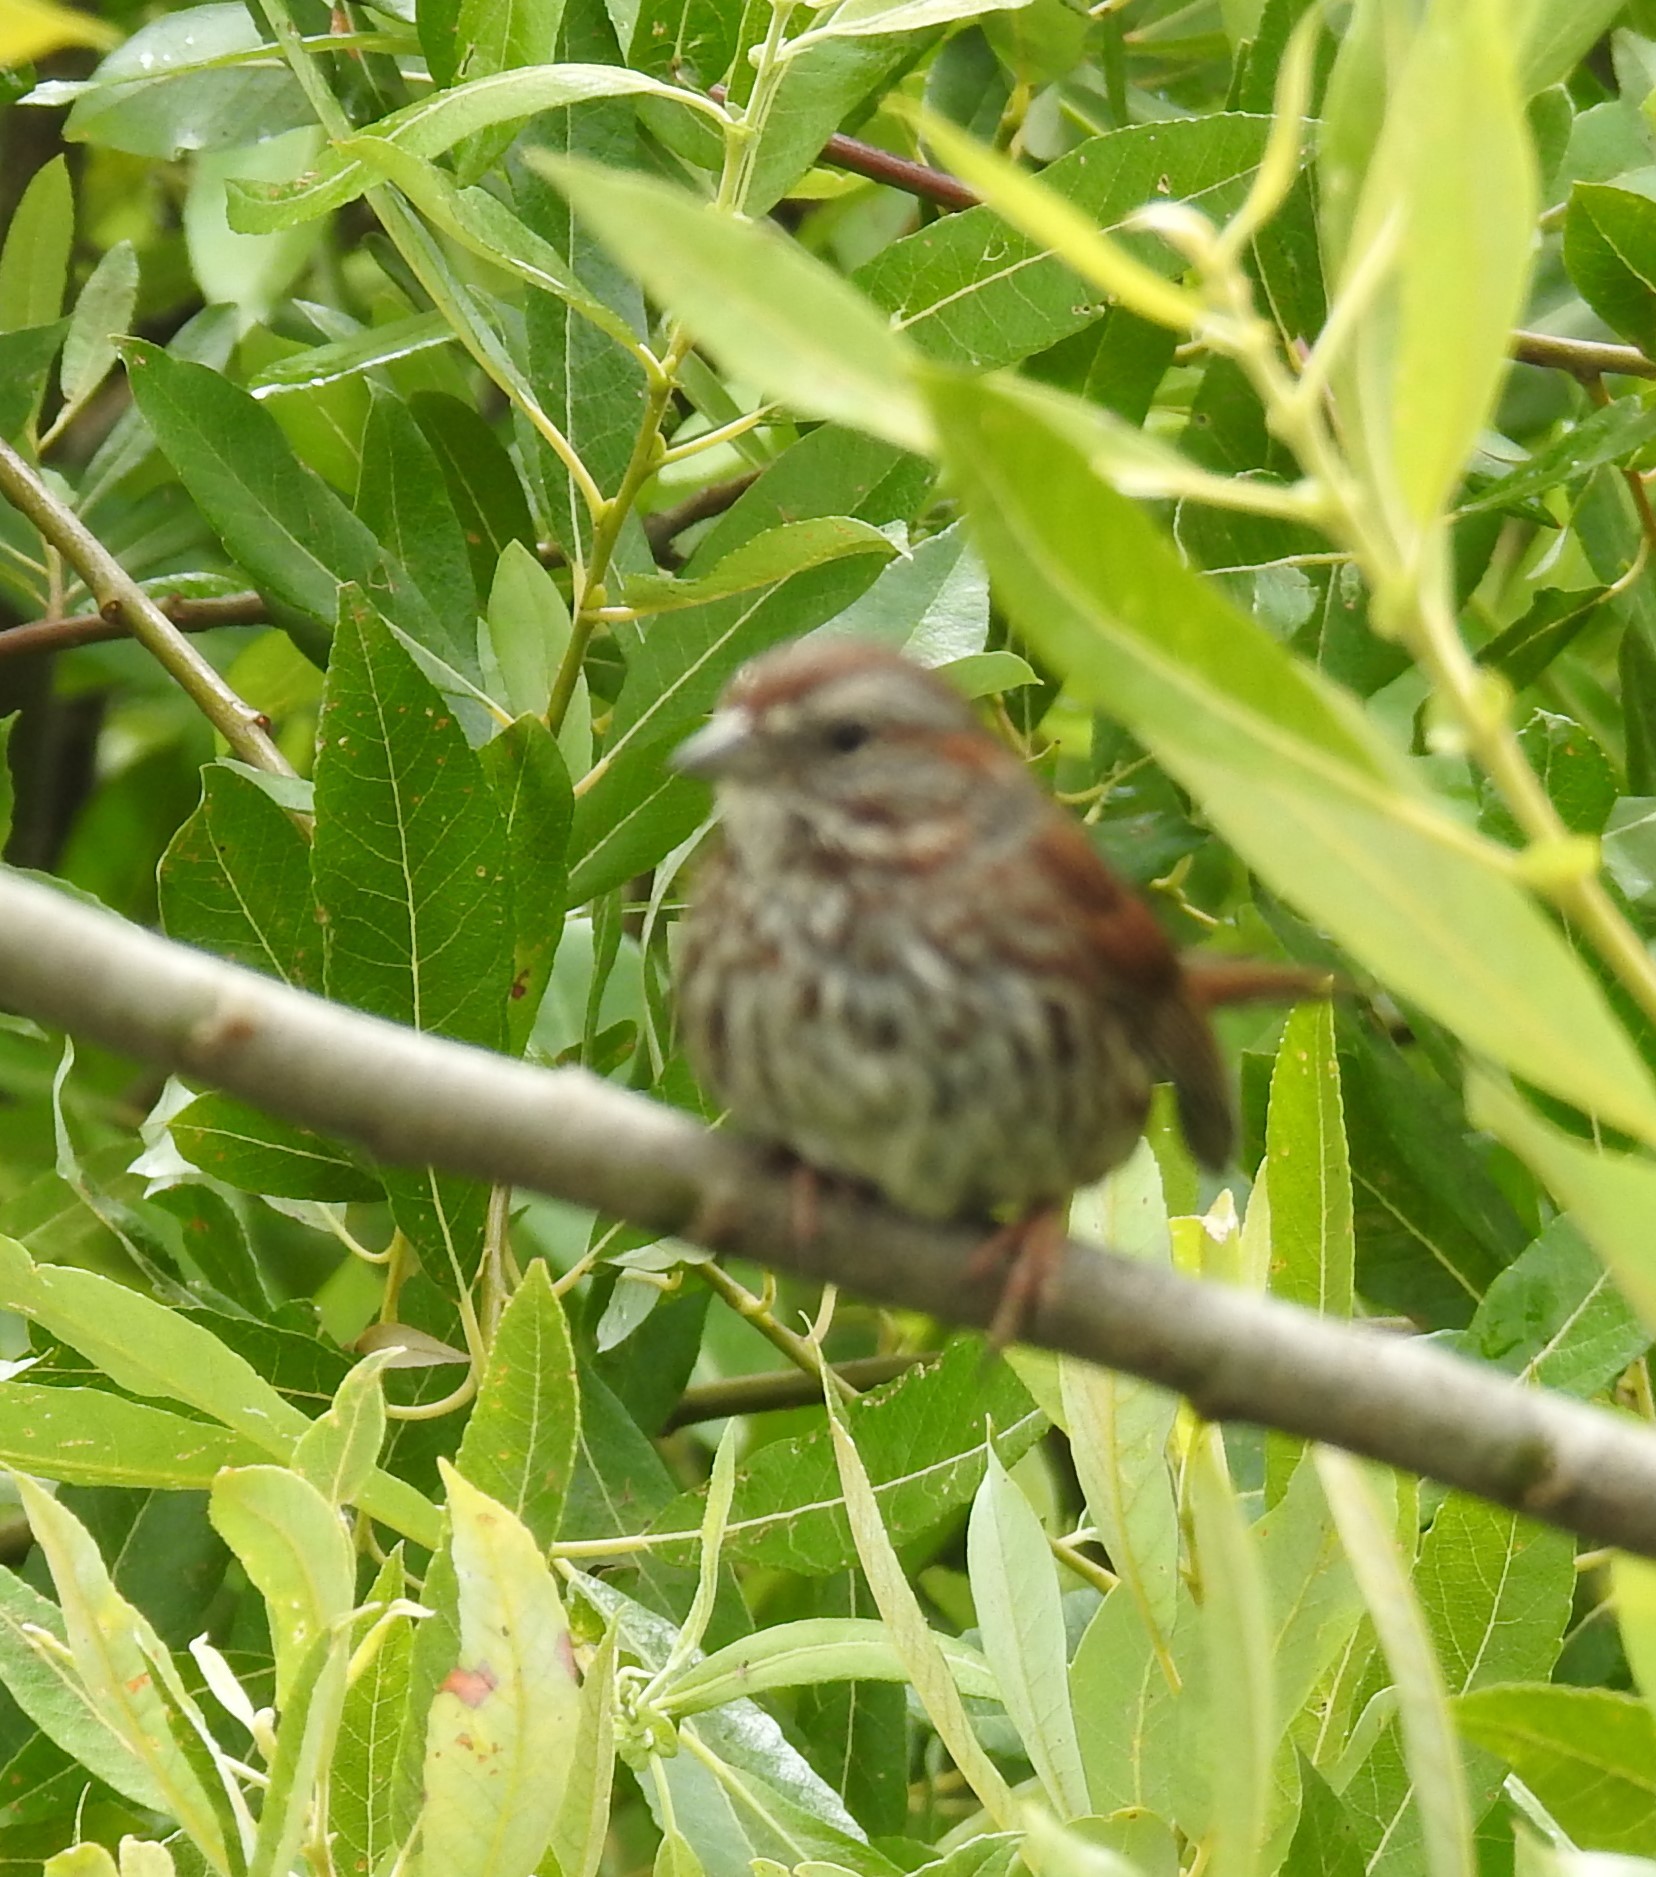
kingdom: Animalia
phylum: Chordata
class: Aves
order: Passeriformes
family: Passerellidae
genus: Melospiza
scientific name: Melospiza melodia
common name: Song sparrow
